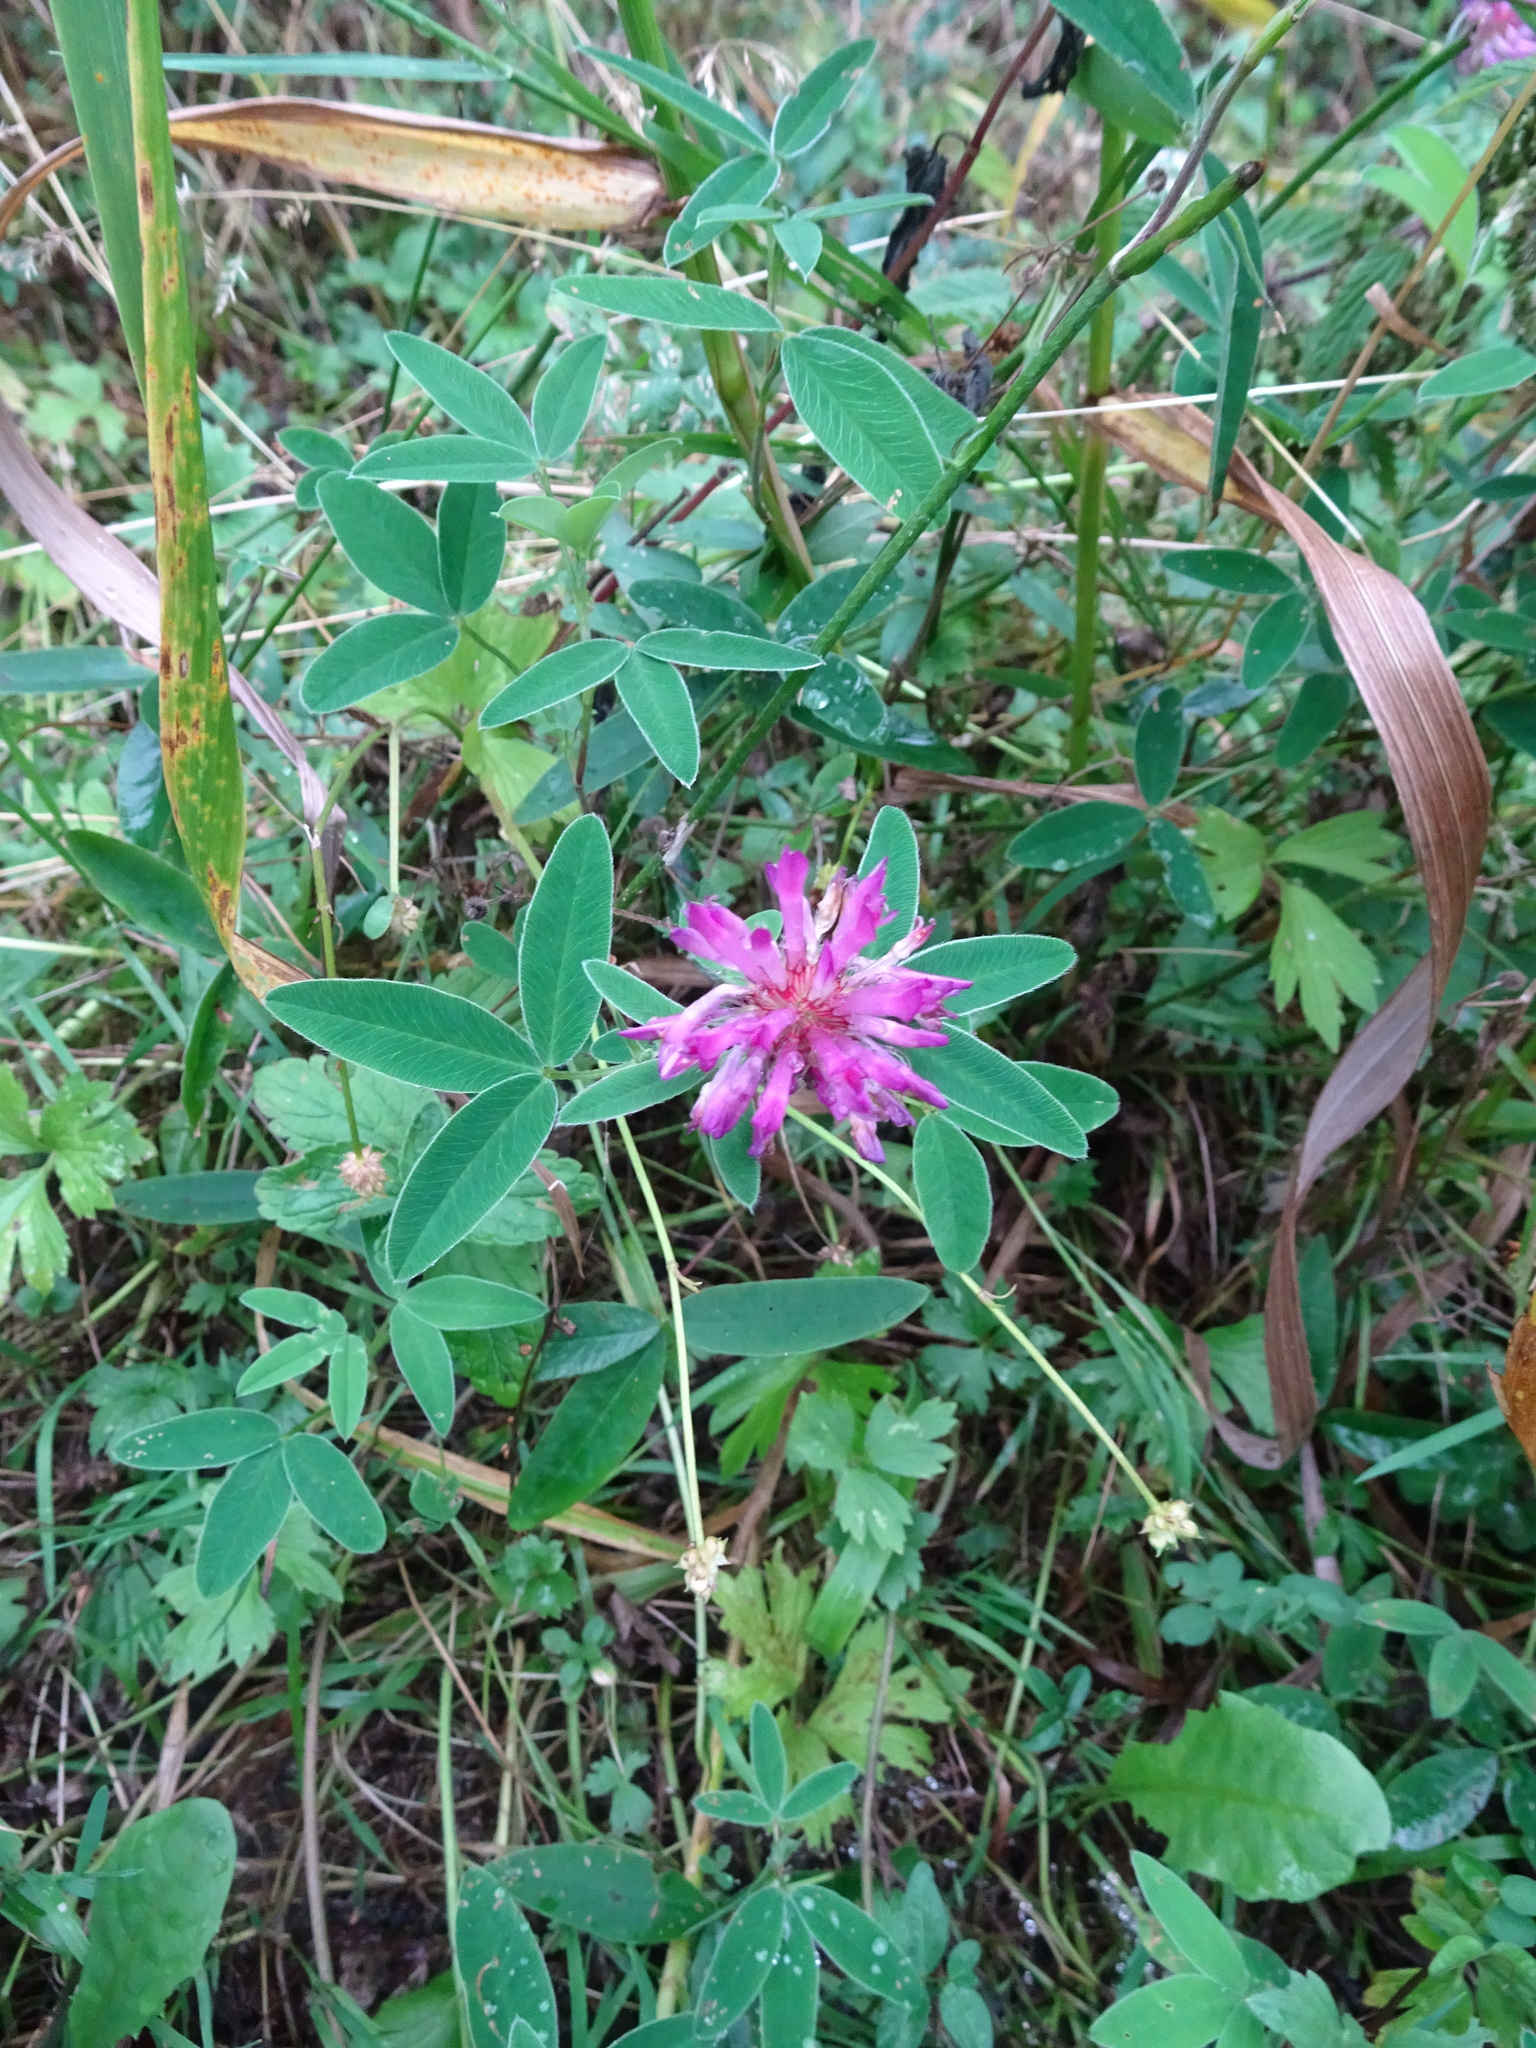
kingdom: Plantae
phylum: Tracheophyta
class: Magnoliopsida
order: Fabales
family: Fabaceae
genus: Trifolium
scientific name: Trifolium medium
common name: Zigzag clover
